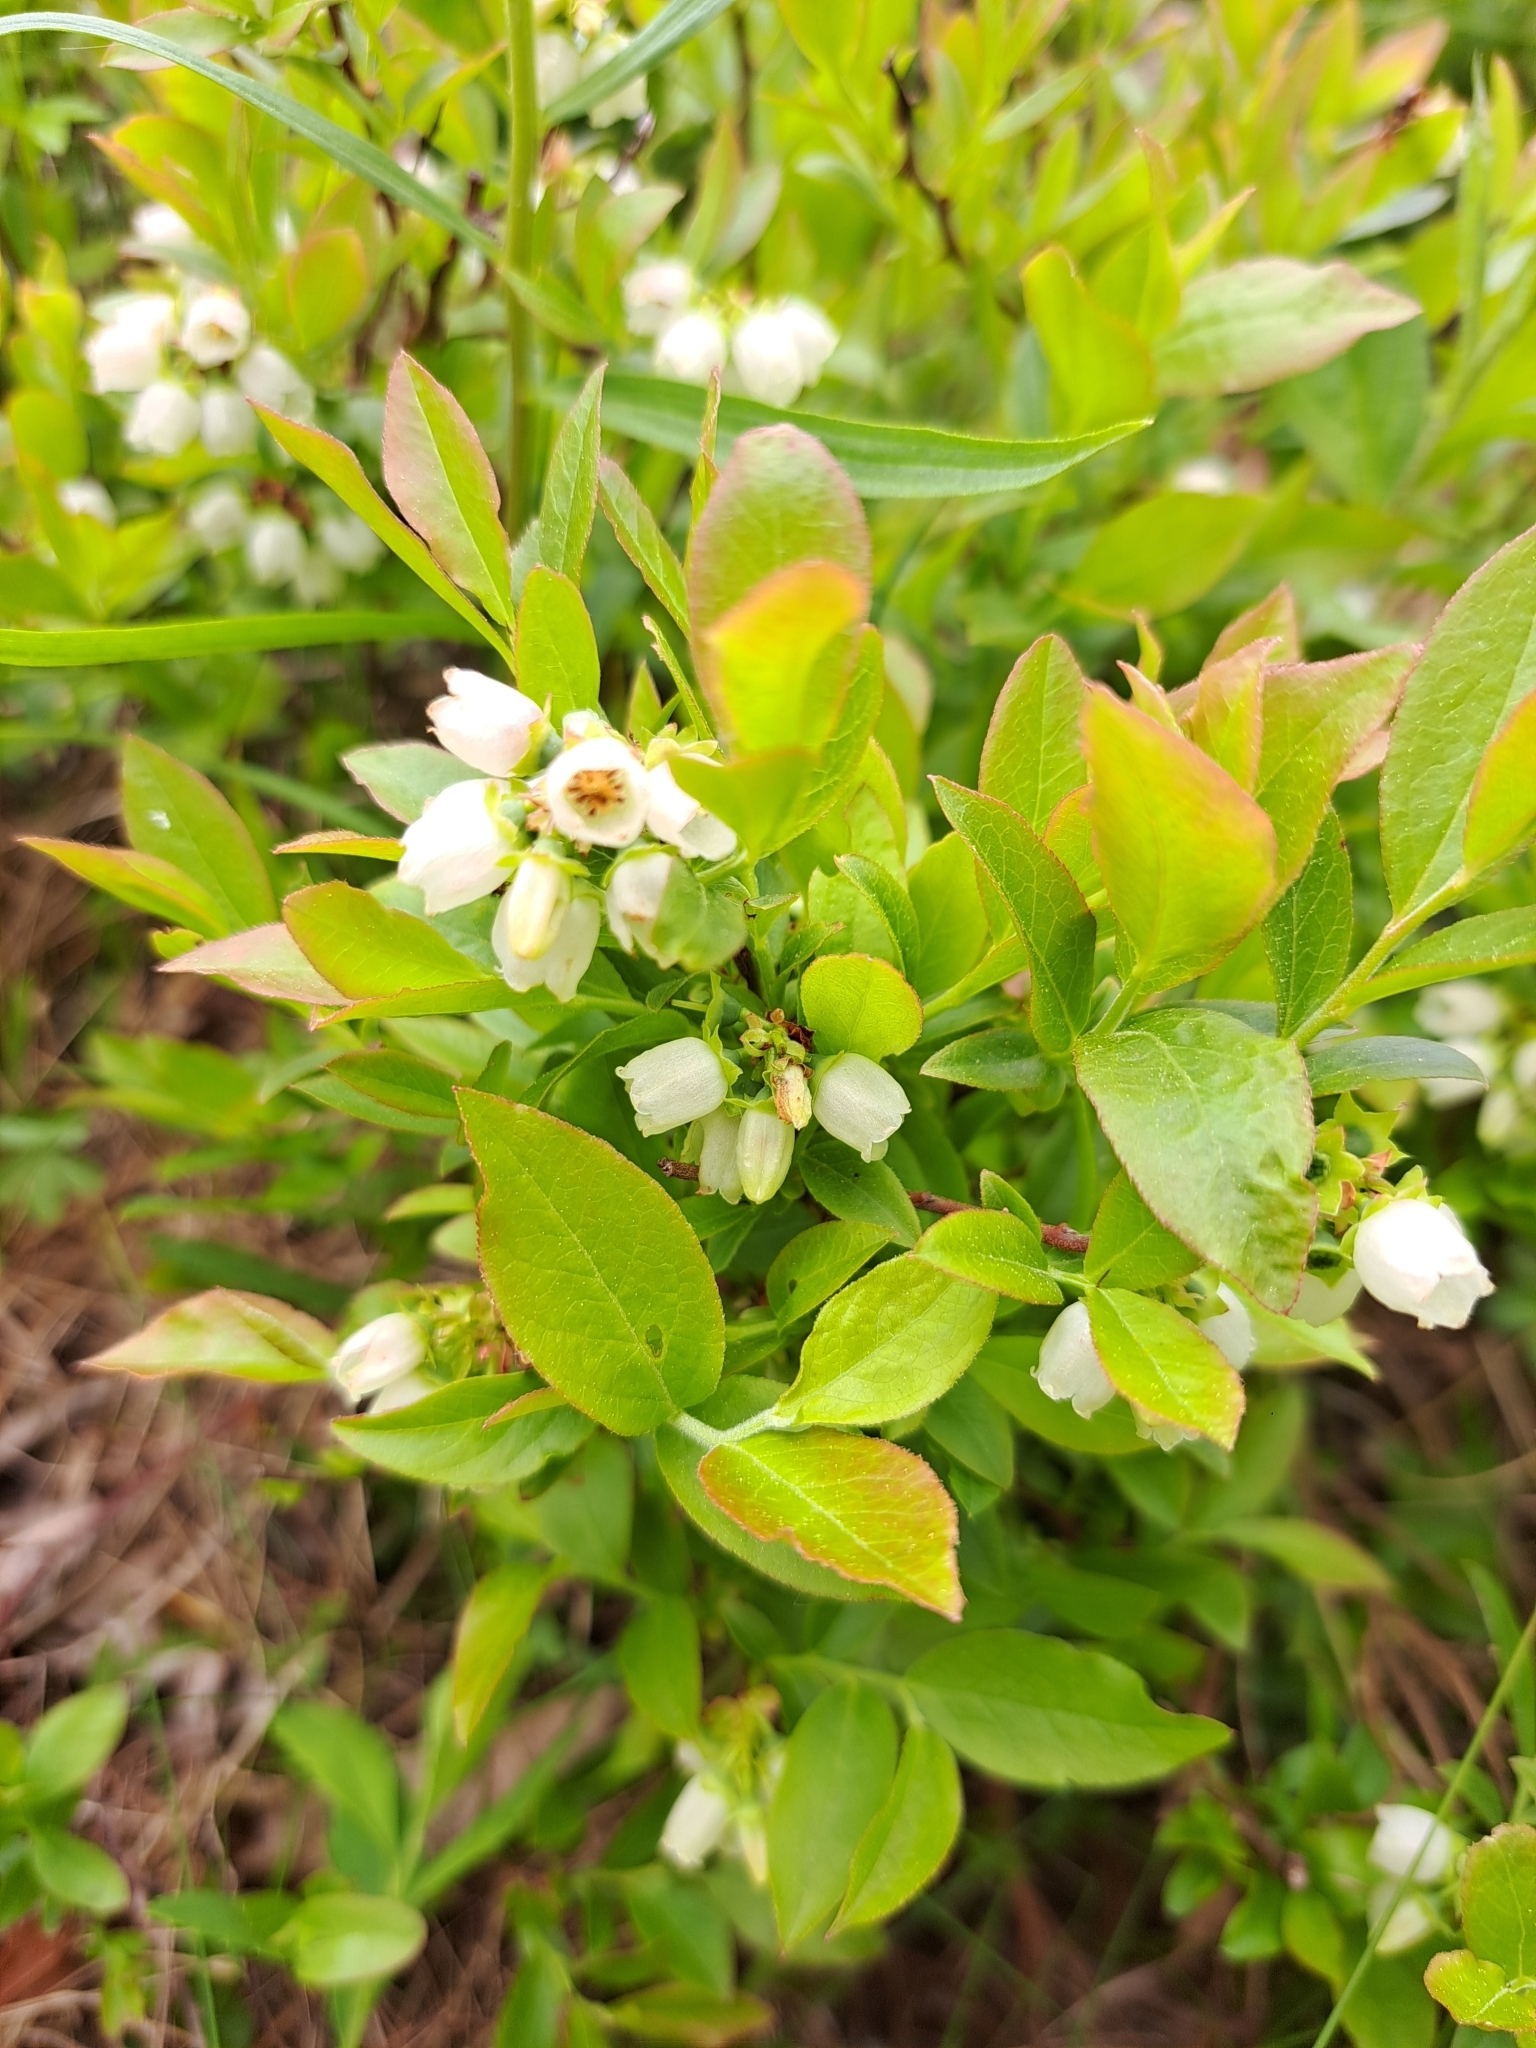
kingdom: Plantae
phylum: Tracheophyta
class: Magnoliopsida
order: Ericales
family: Ericaceae
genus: Vaccinium
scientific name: Vaccinium angustifolium
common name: Early lowbush blueberry
